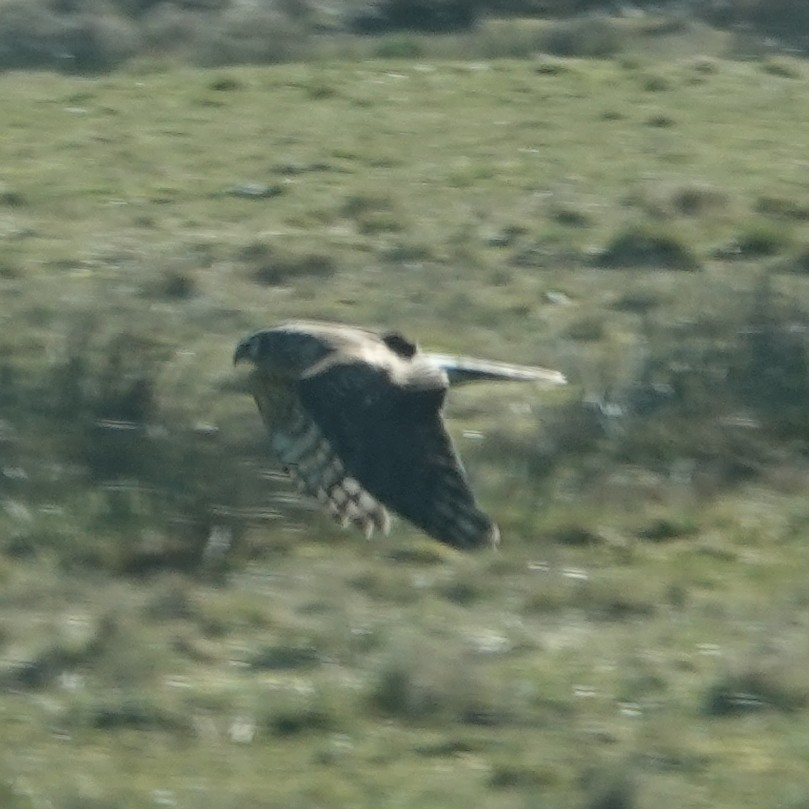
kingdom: Animalia
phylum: Chordata
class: Aves
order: Accipitriformes
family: Accipitridae
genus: Circus
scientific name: Circus cyaneus
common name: Hen harrier
